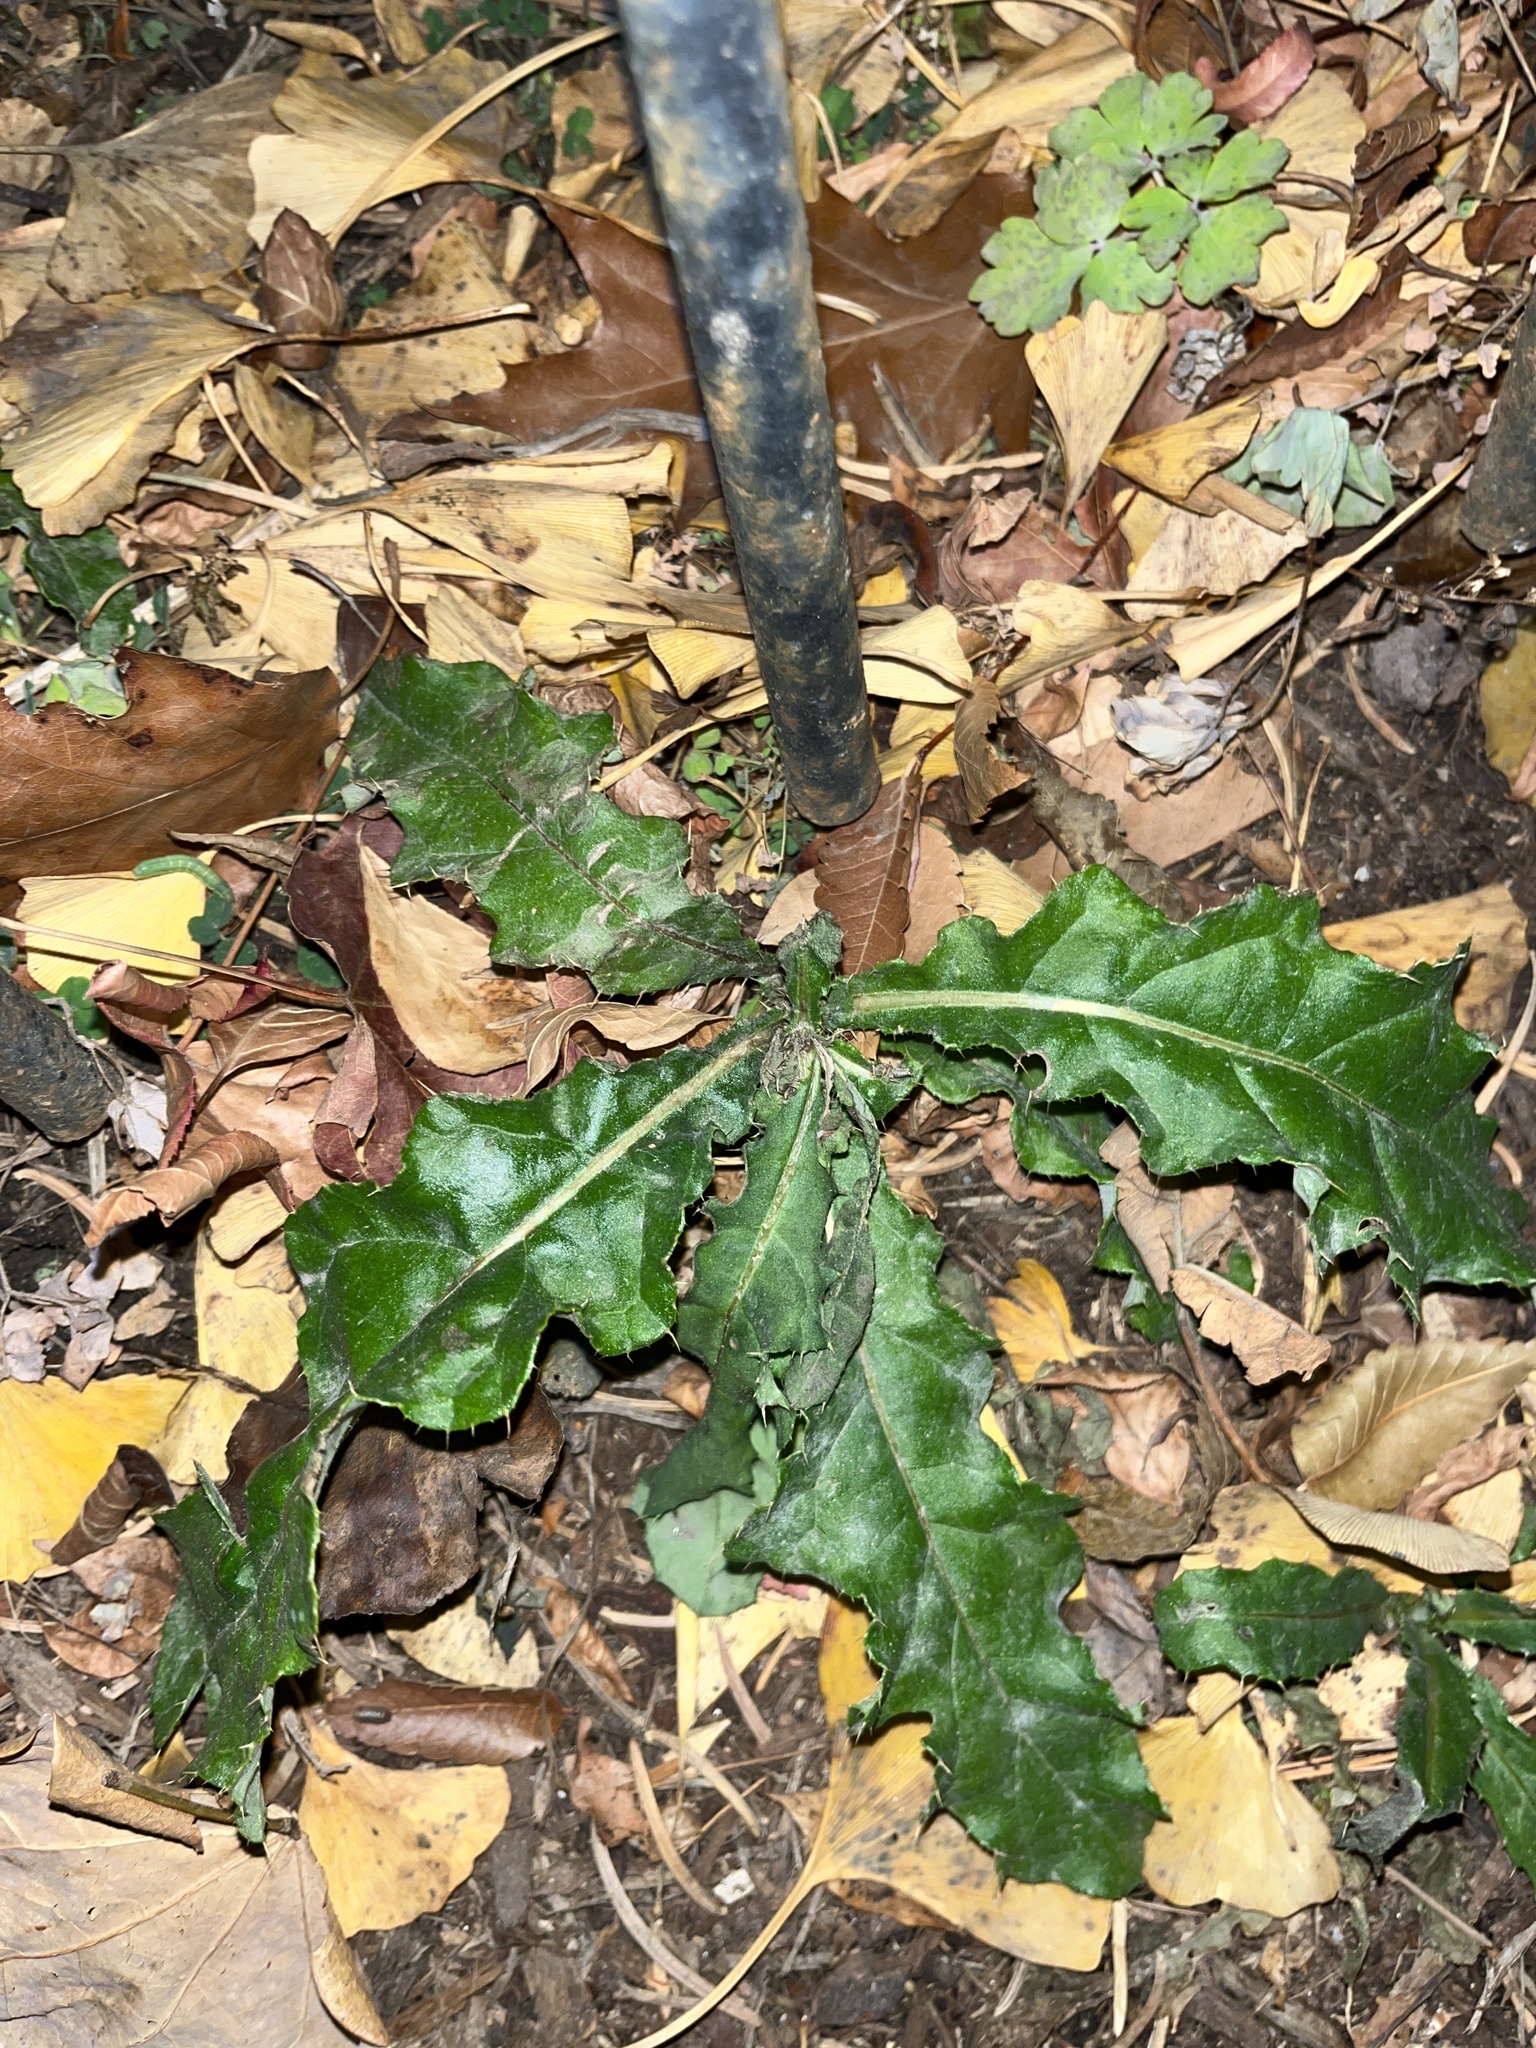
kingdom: Plantae
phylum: Tracheophyta
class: Magnoliopsida
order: Asterales
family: Asteraceae
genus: Cirsium
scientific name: Cirsium arvense
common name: Creeping thistle
